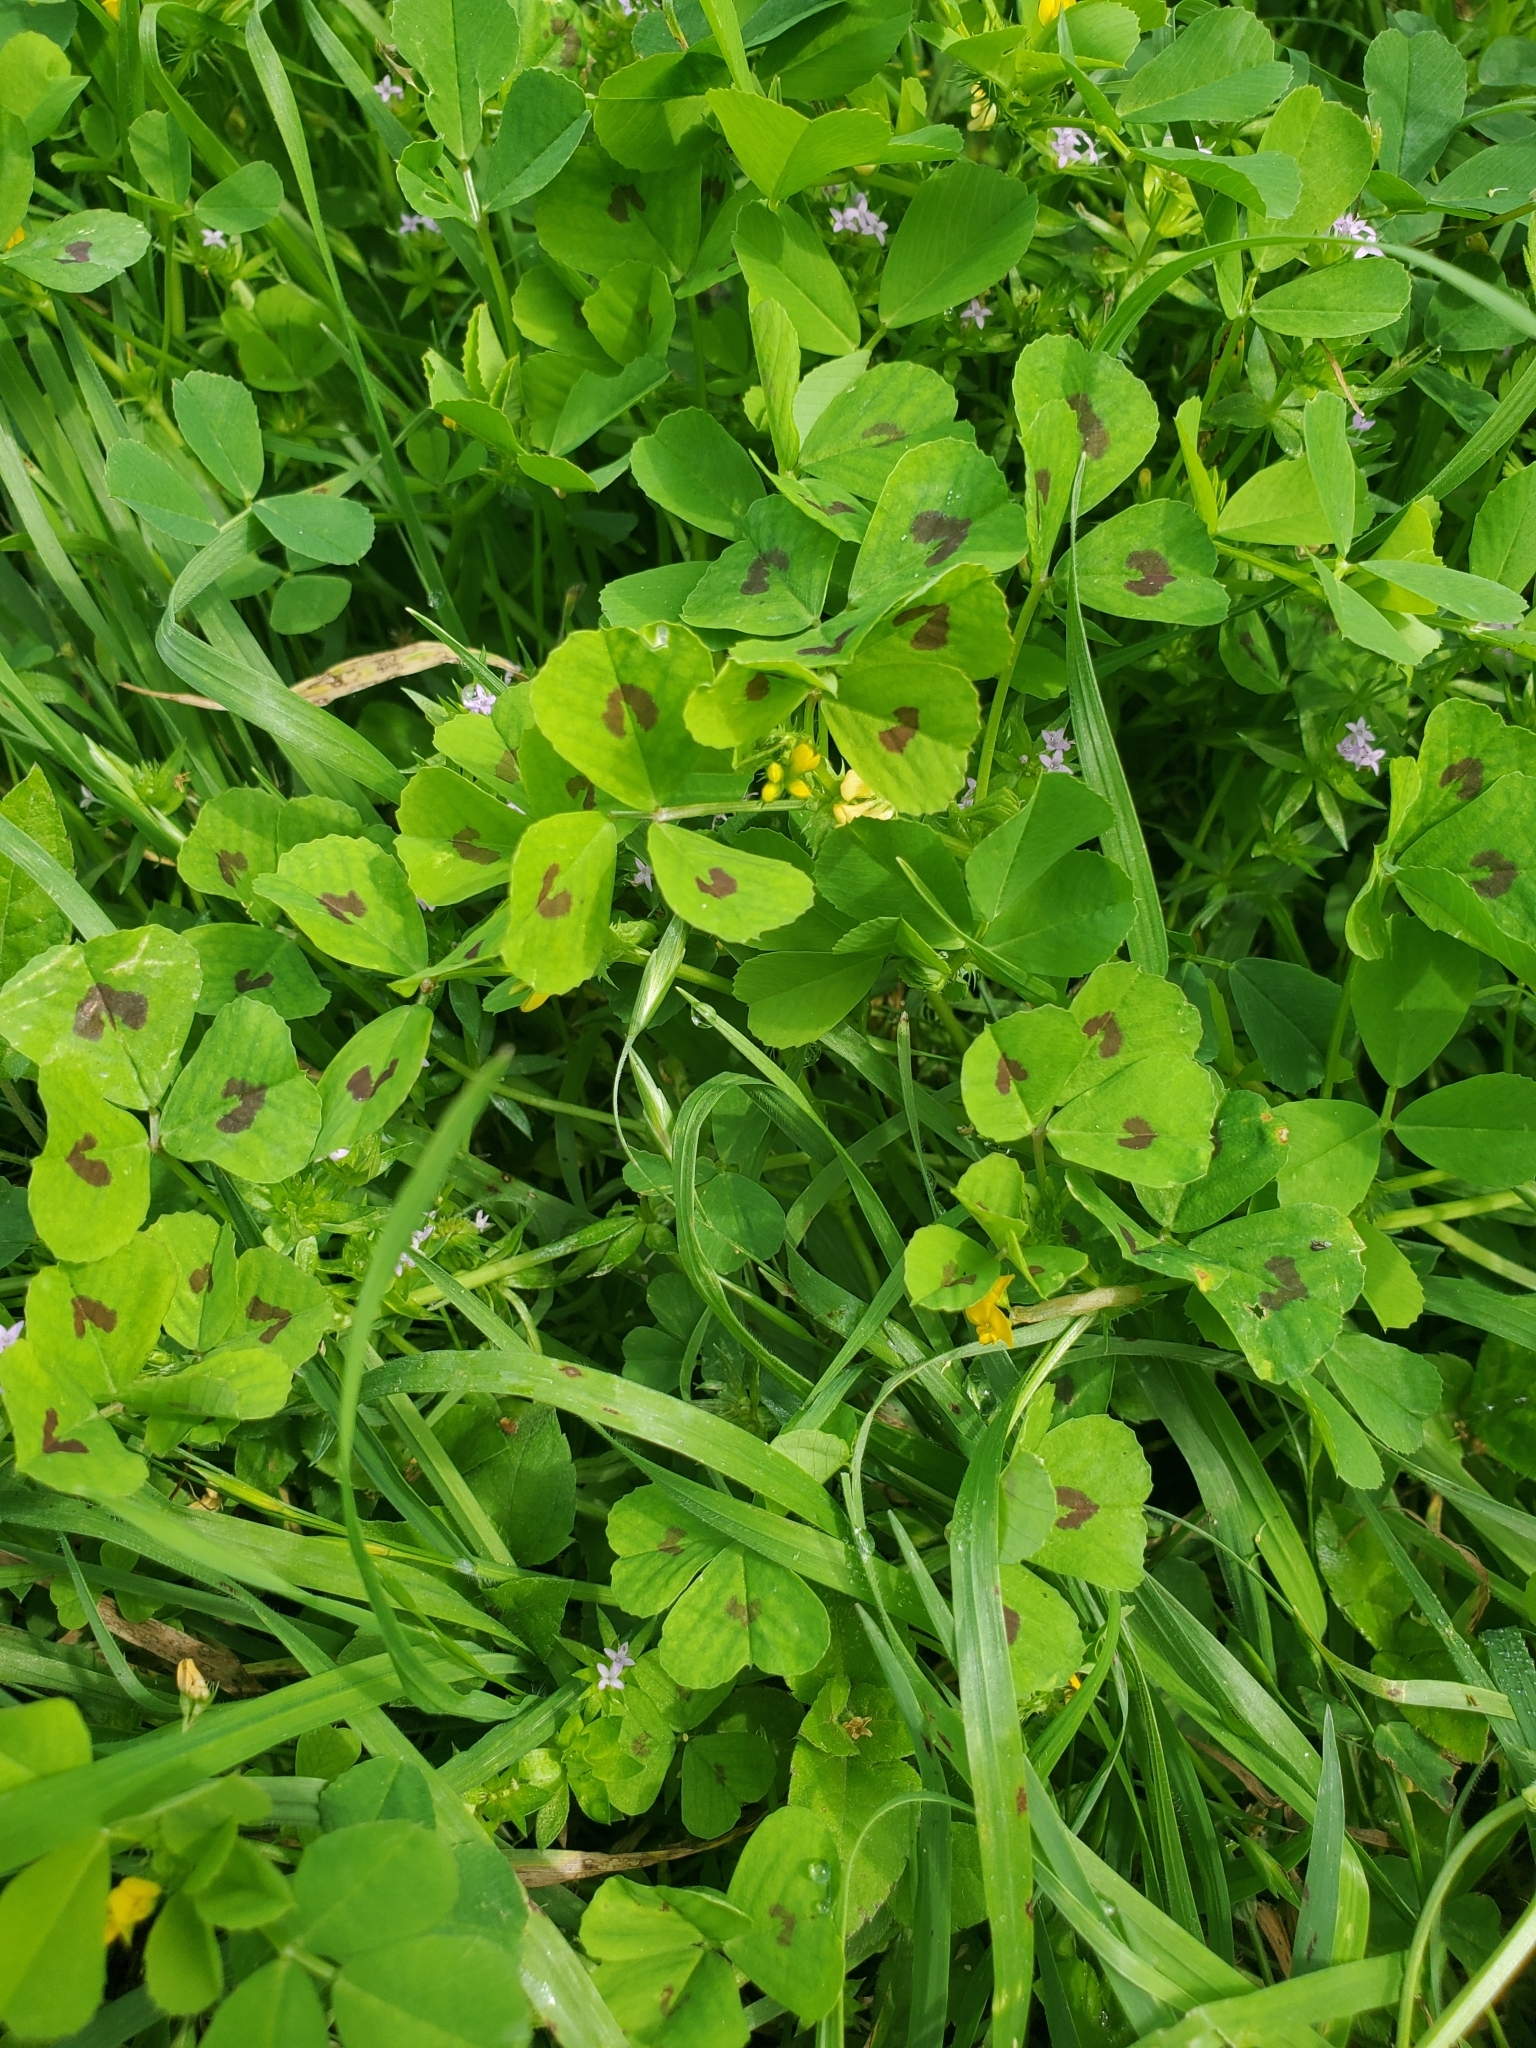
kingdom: Plantae
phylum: Tracheophyta
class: Magnoliopsida
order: Fabales
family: Fabaceae
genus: Medicago
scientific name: Medicago arabica
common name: Spotted medick
